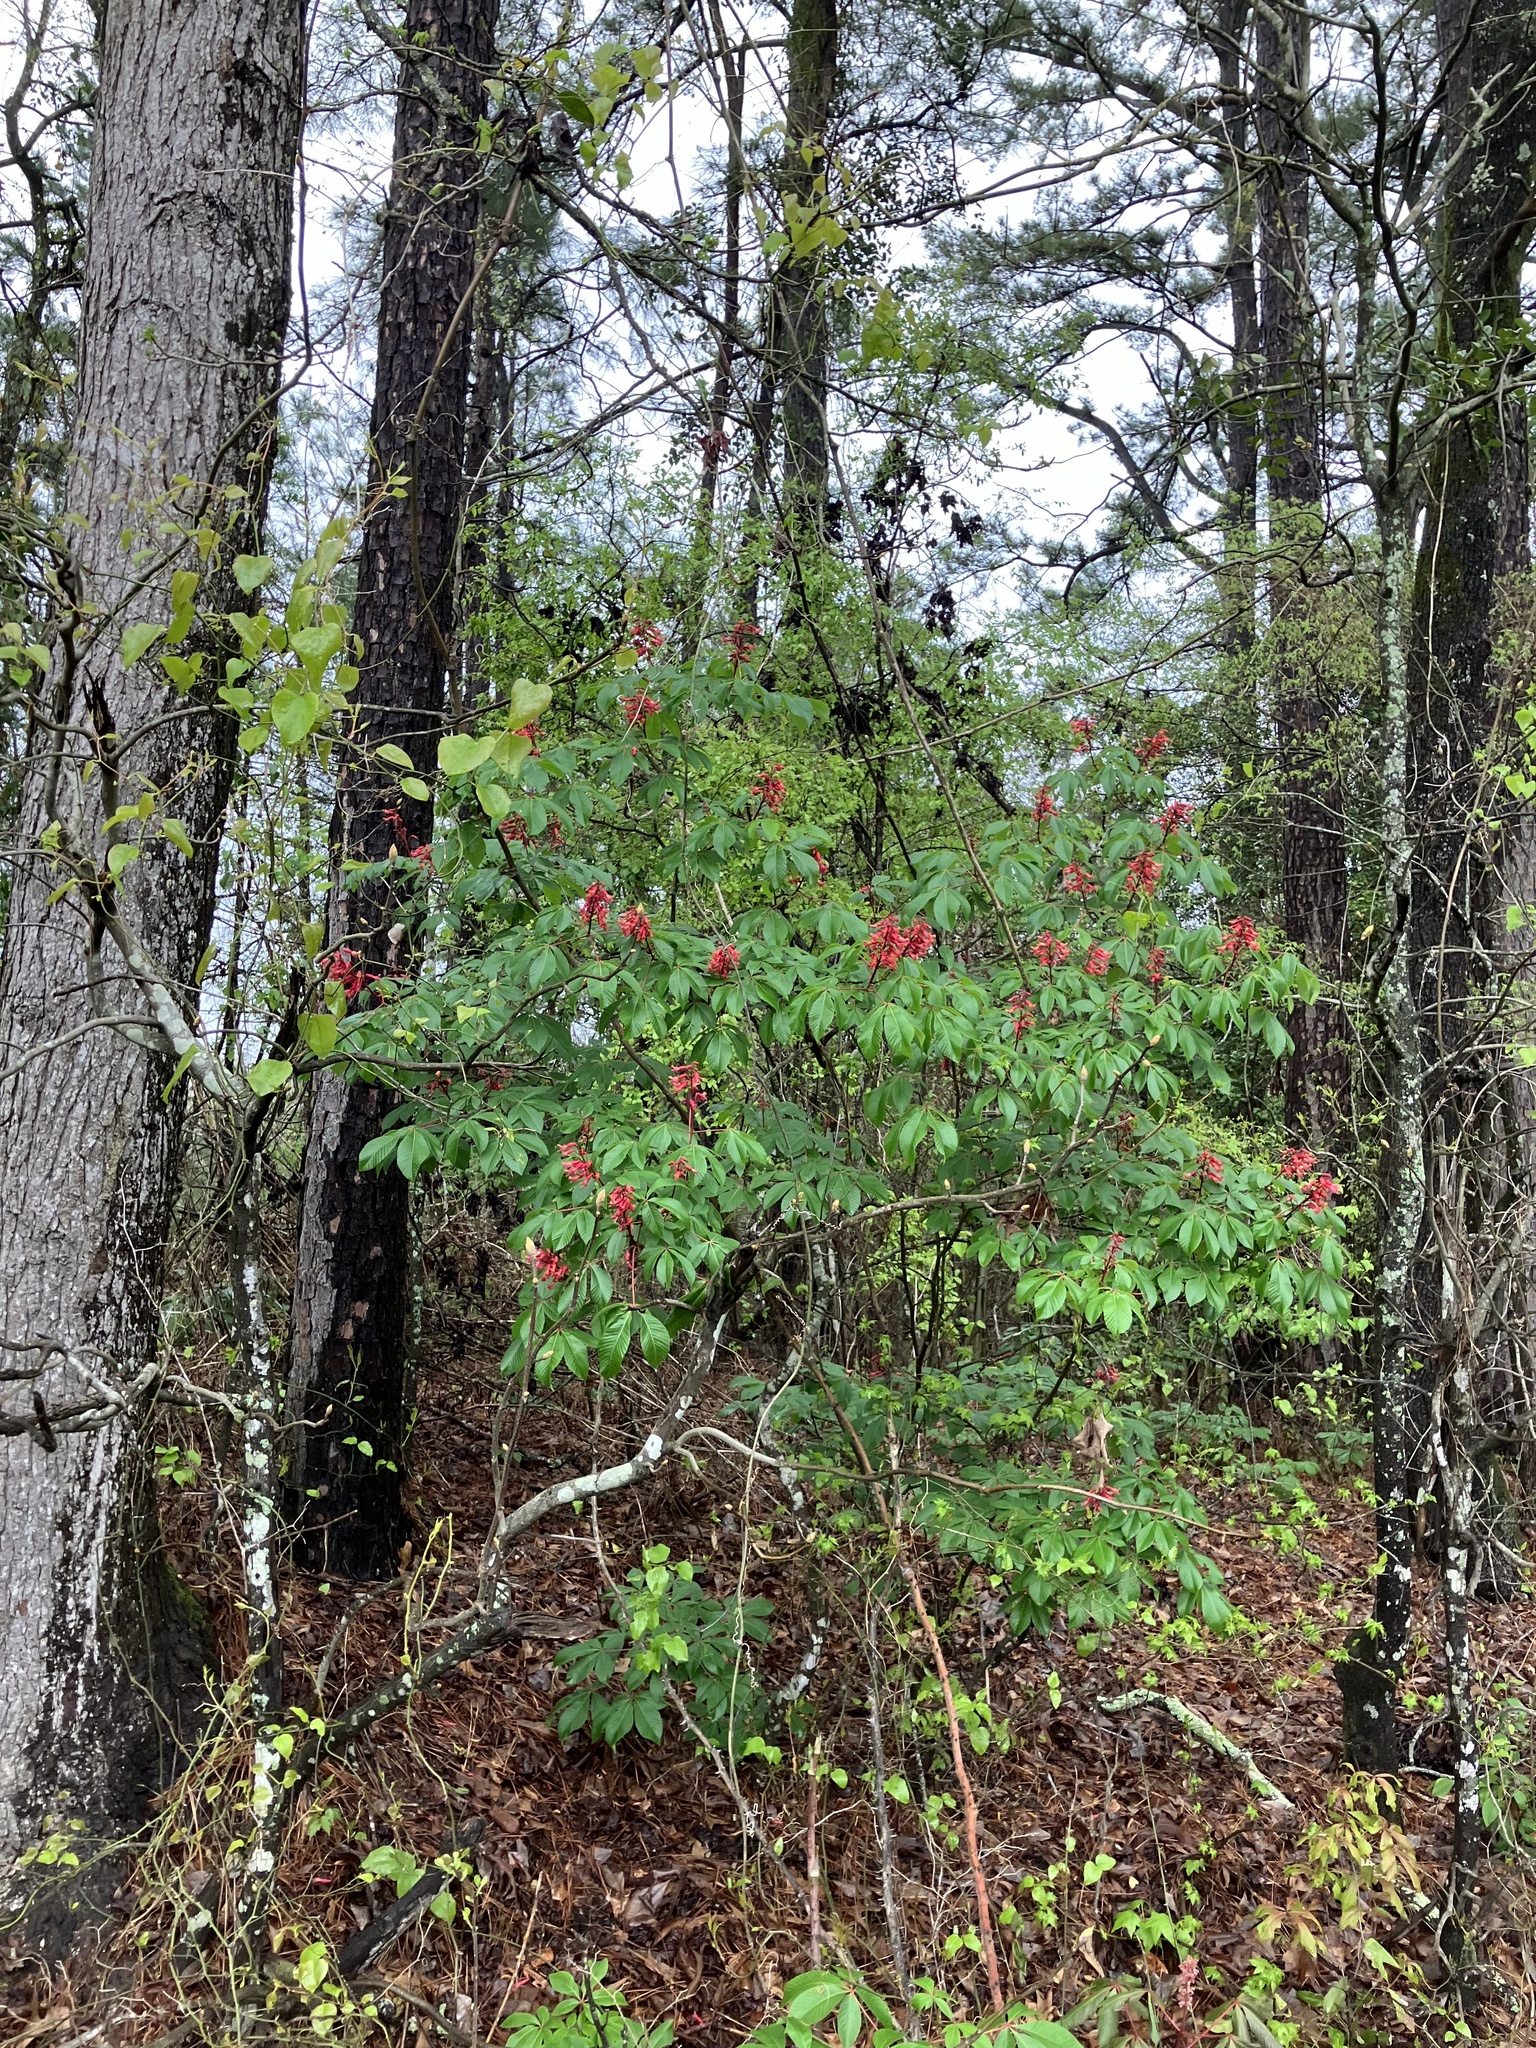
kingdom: Plantae
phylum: Tracheophyta
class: Magnoliopsida
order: Sapindales
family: Sapindaceae
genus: Aesculus
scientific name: Aesculus pavia
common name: Red buckeye
